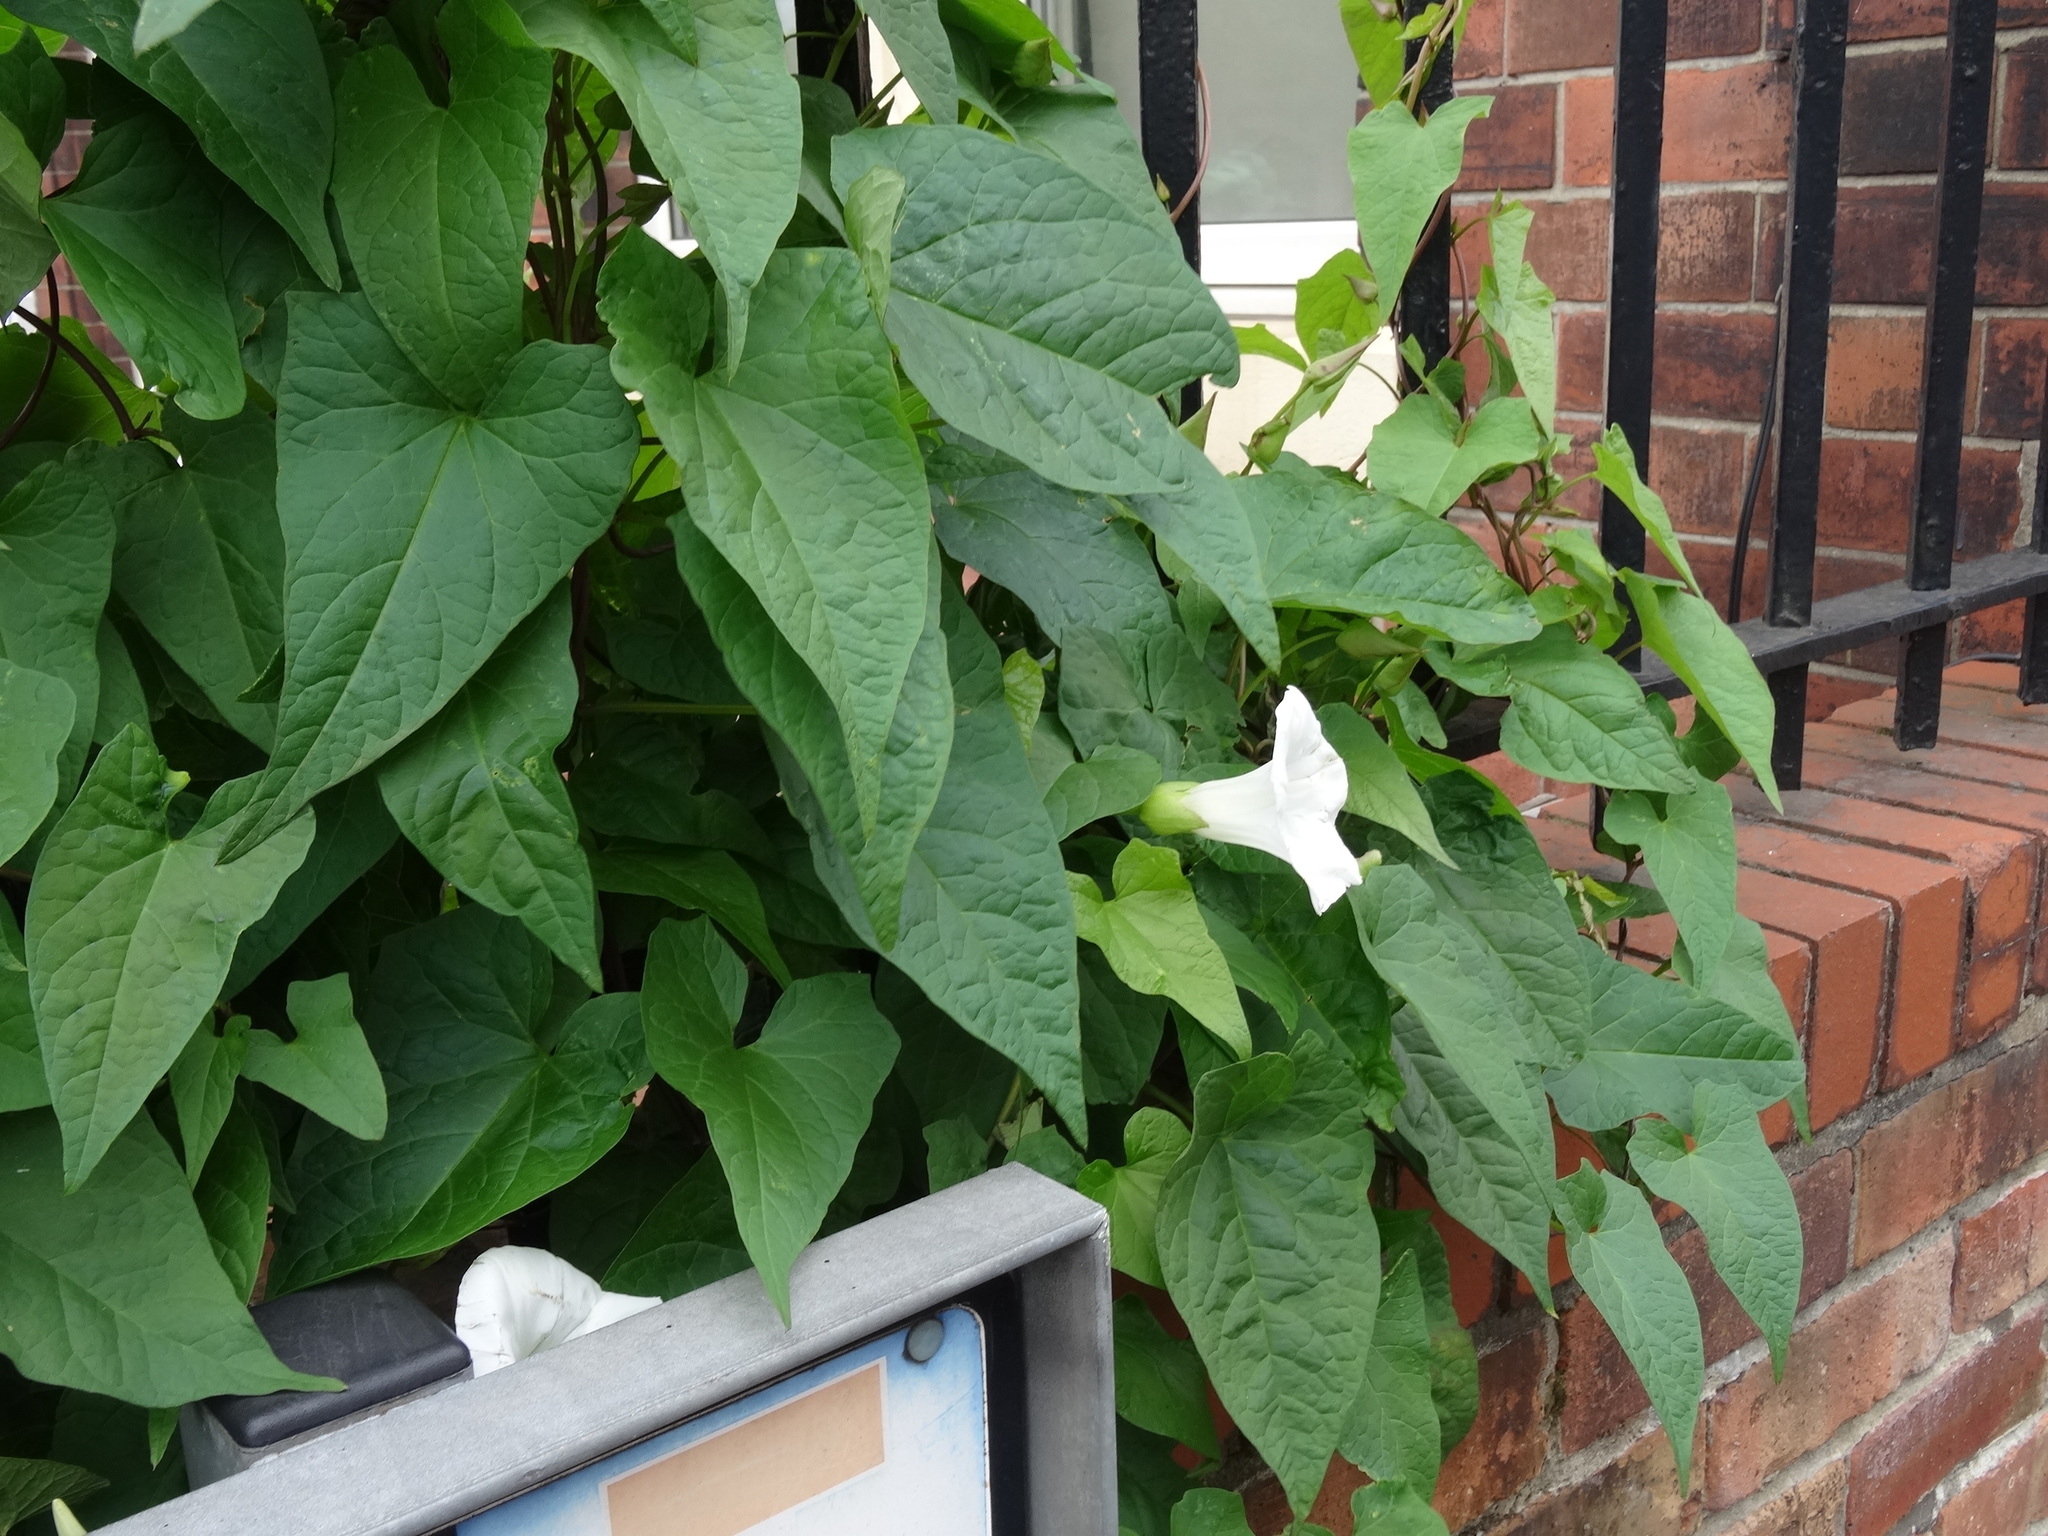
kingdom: Plantae
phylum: Tracheophyta
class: Magnoliopsida
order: Solanales
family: Convolvulaceae
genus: Calystegia
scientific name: Calystegia sepium
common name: Hedge bindweed
